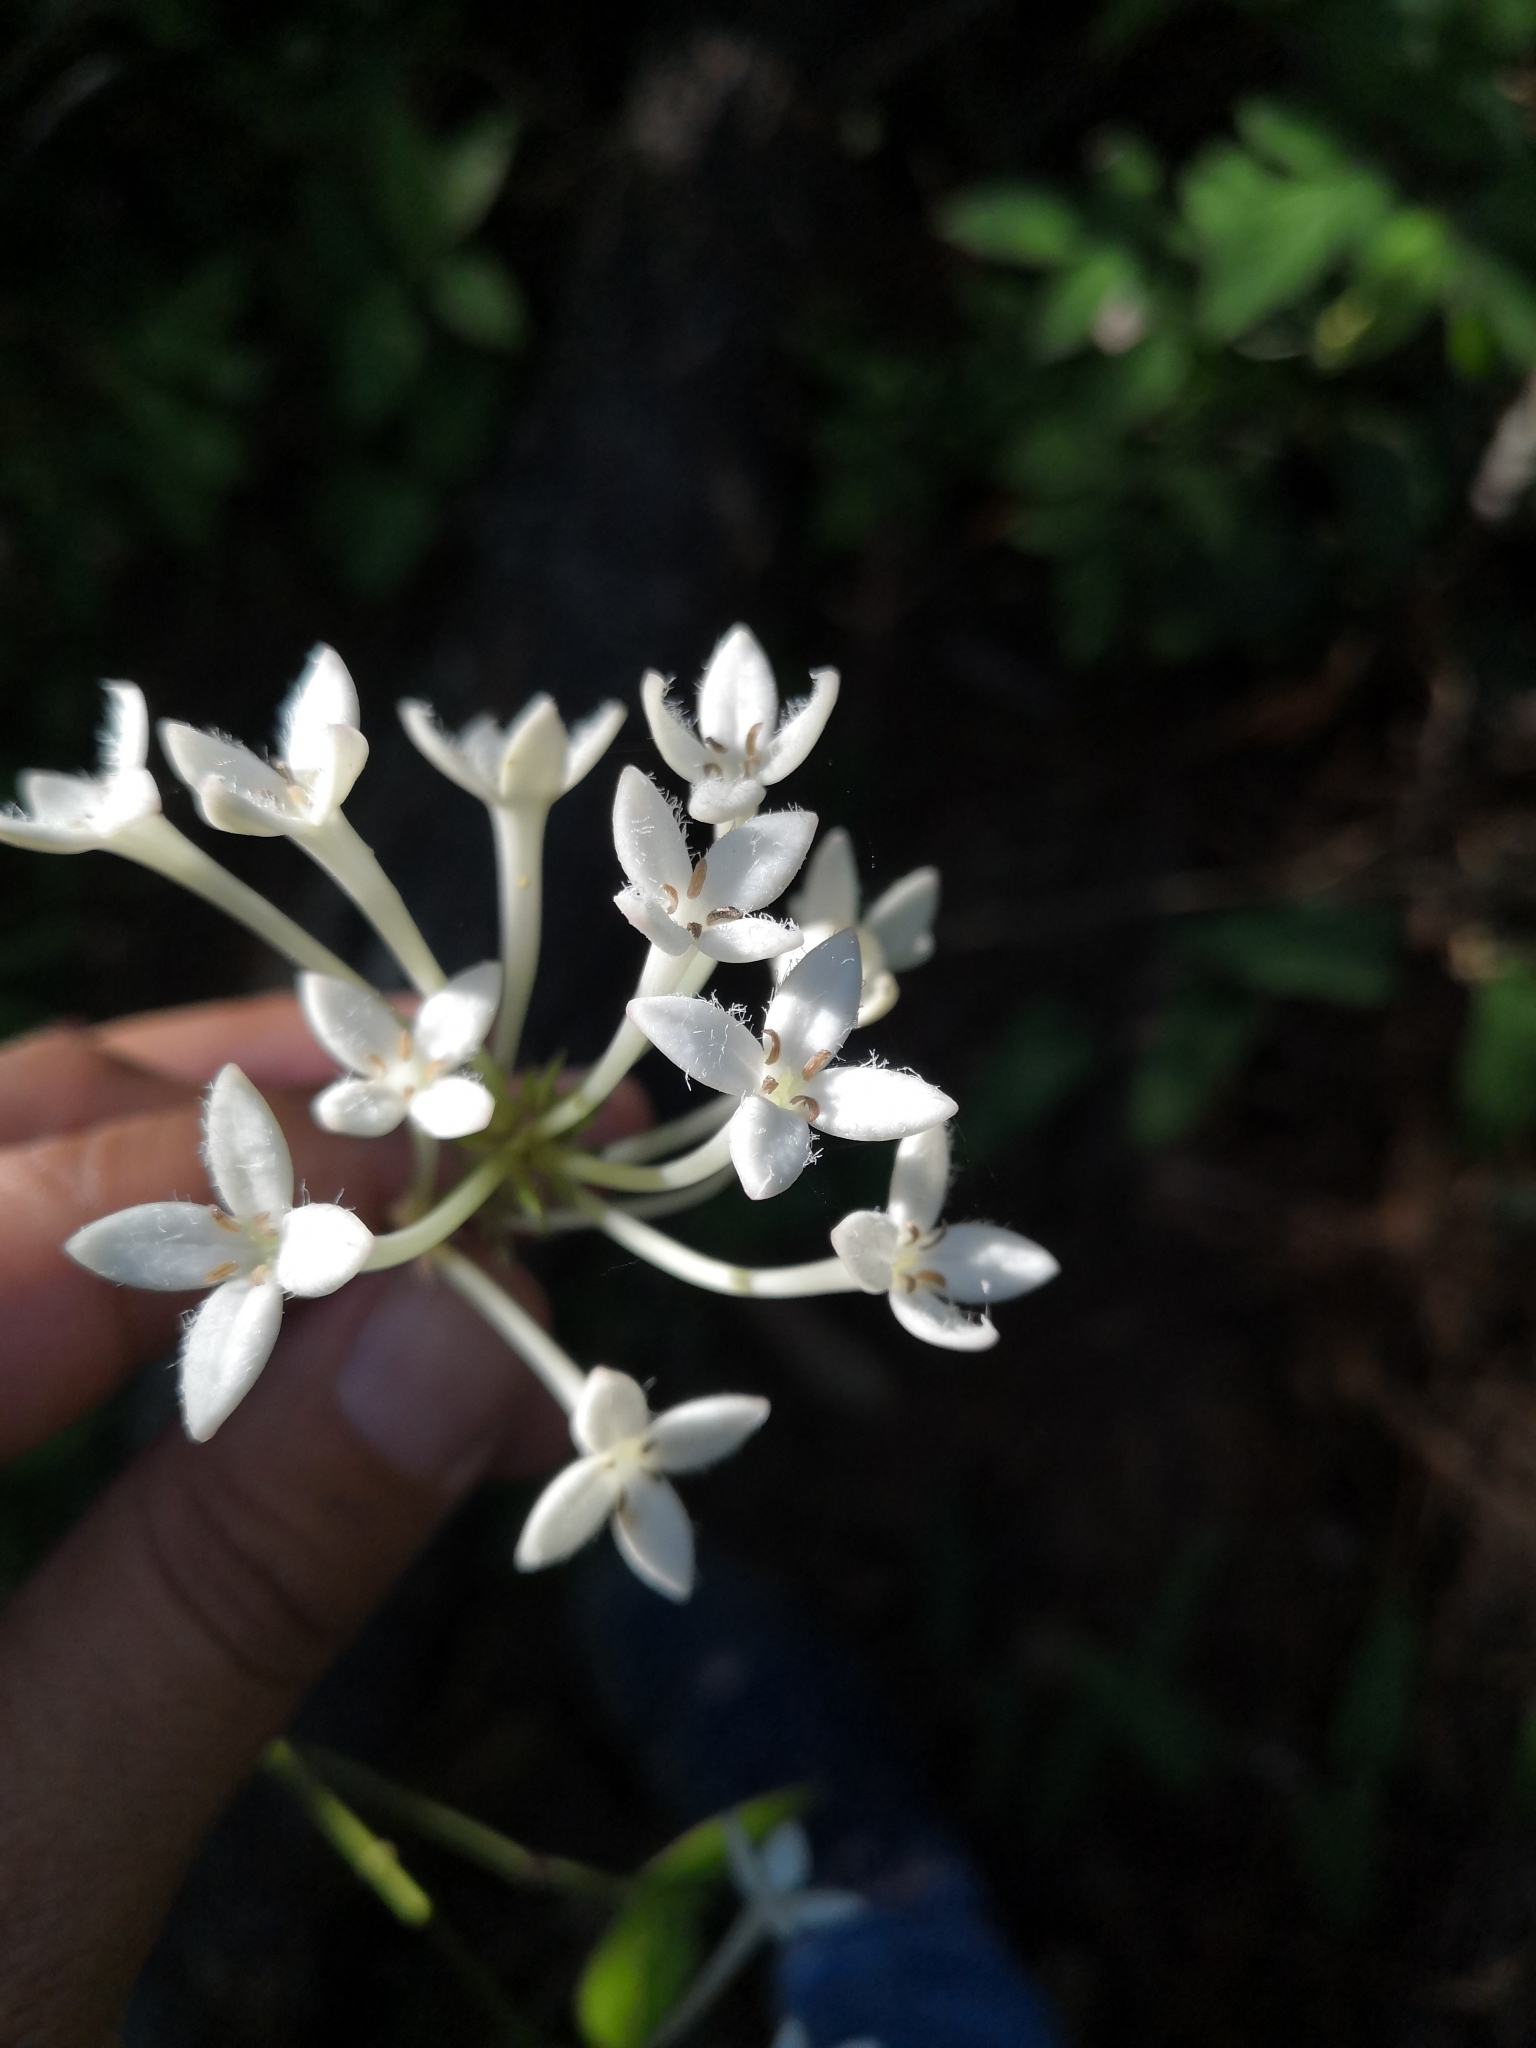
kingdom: Plantae
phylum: Tracheophyta
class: Magnoliopsida
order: Gentianales
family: Rubiaceae
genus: Bouvardia
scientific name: Bouvardia lottiae
